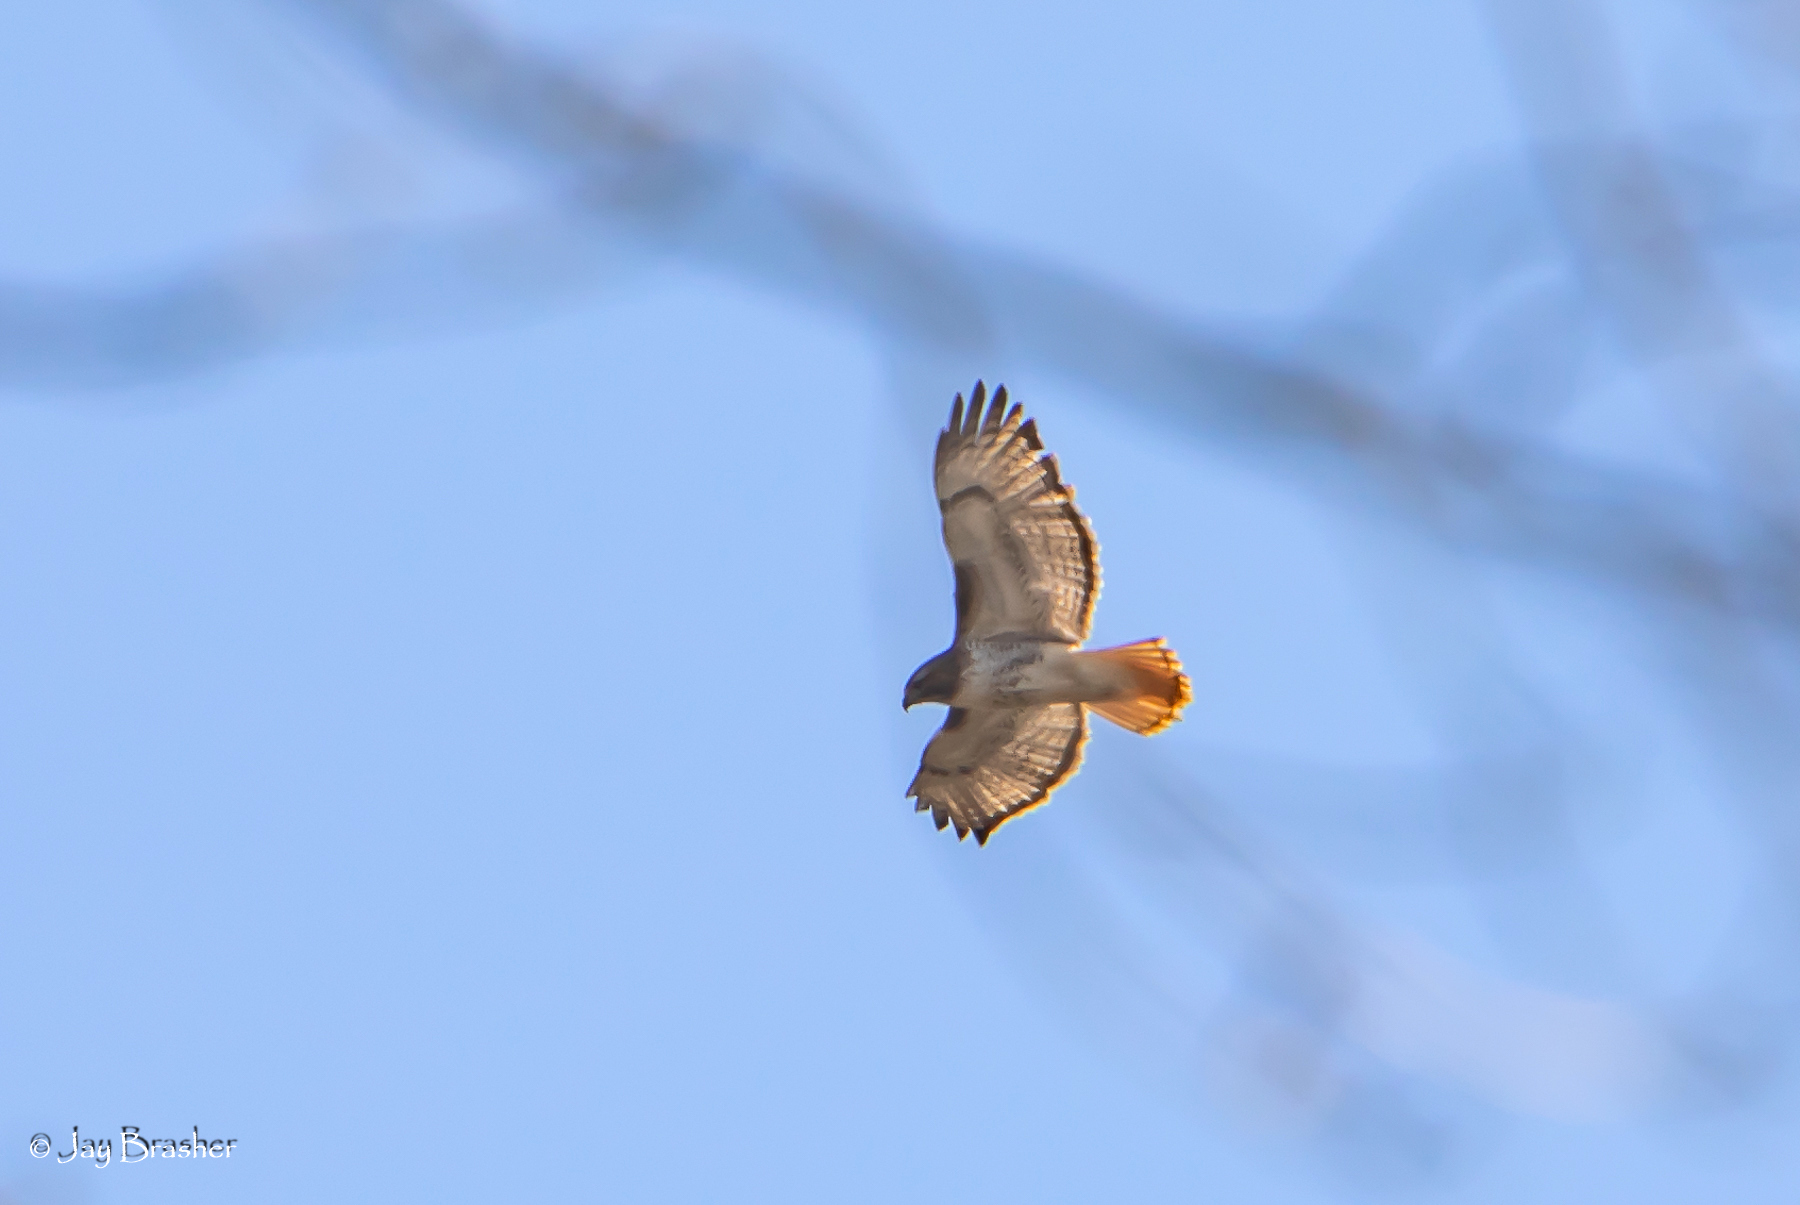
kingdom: Animalia
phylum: Chordata
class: Aves
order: Accipitriformes
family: Accipitridae
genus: Buteo
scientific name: Buteo jamaicensis
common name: Red-tailed hawk
